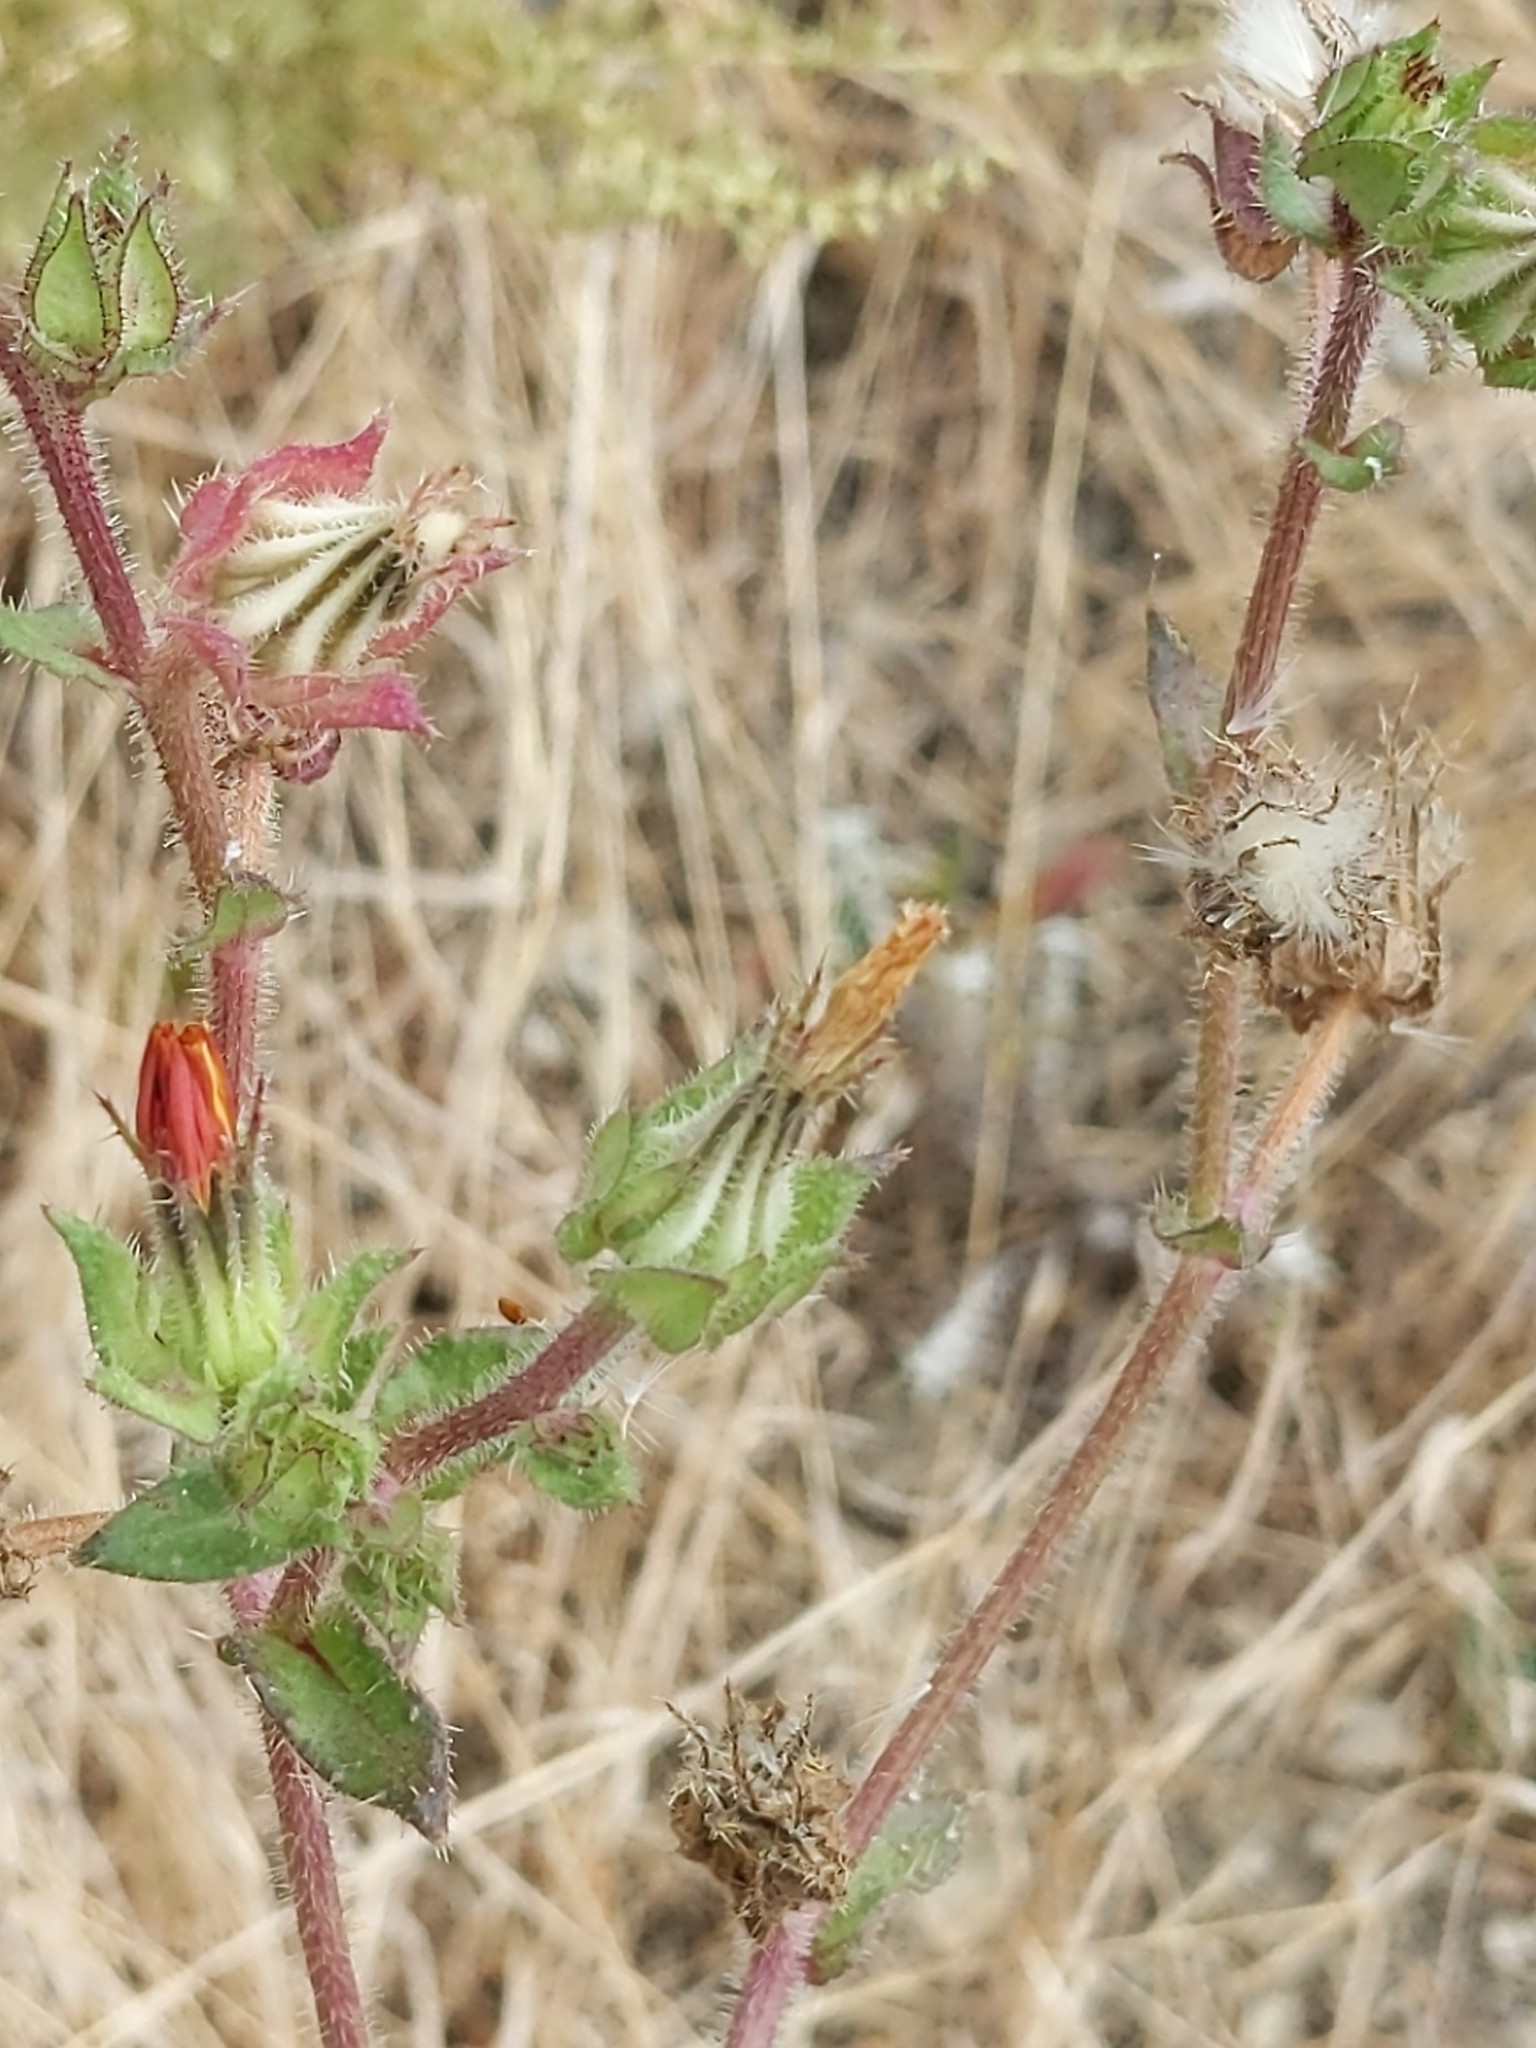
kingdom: Plantae
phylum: Tracheophyta
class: Magnoliopsida
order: Asterales
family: Asteraceae
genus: Helminthotheca
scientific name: Helminthotheca echioides
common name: Ox-tongue
